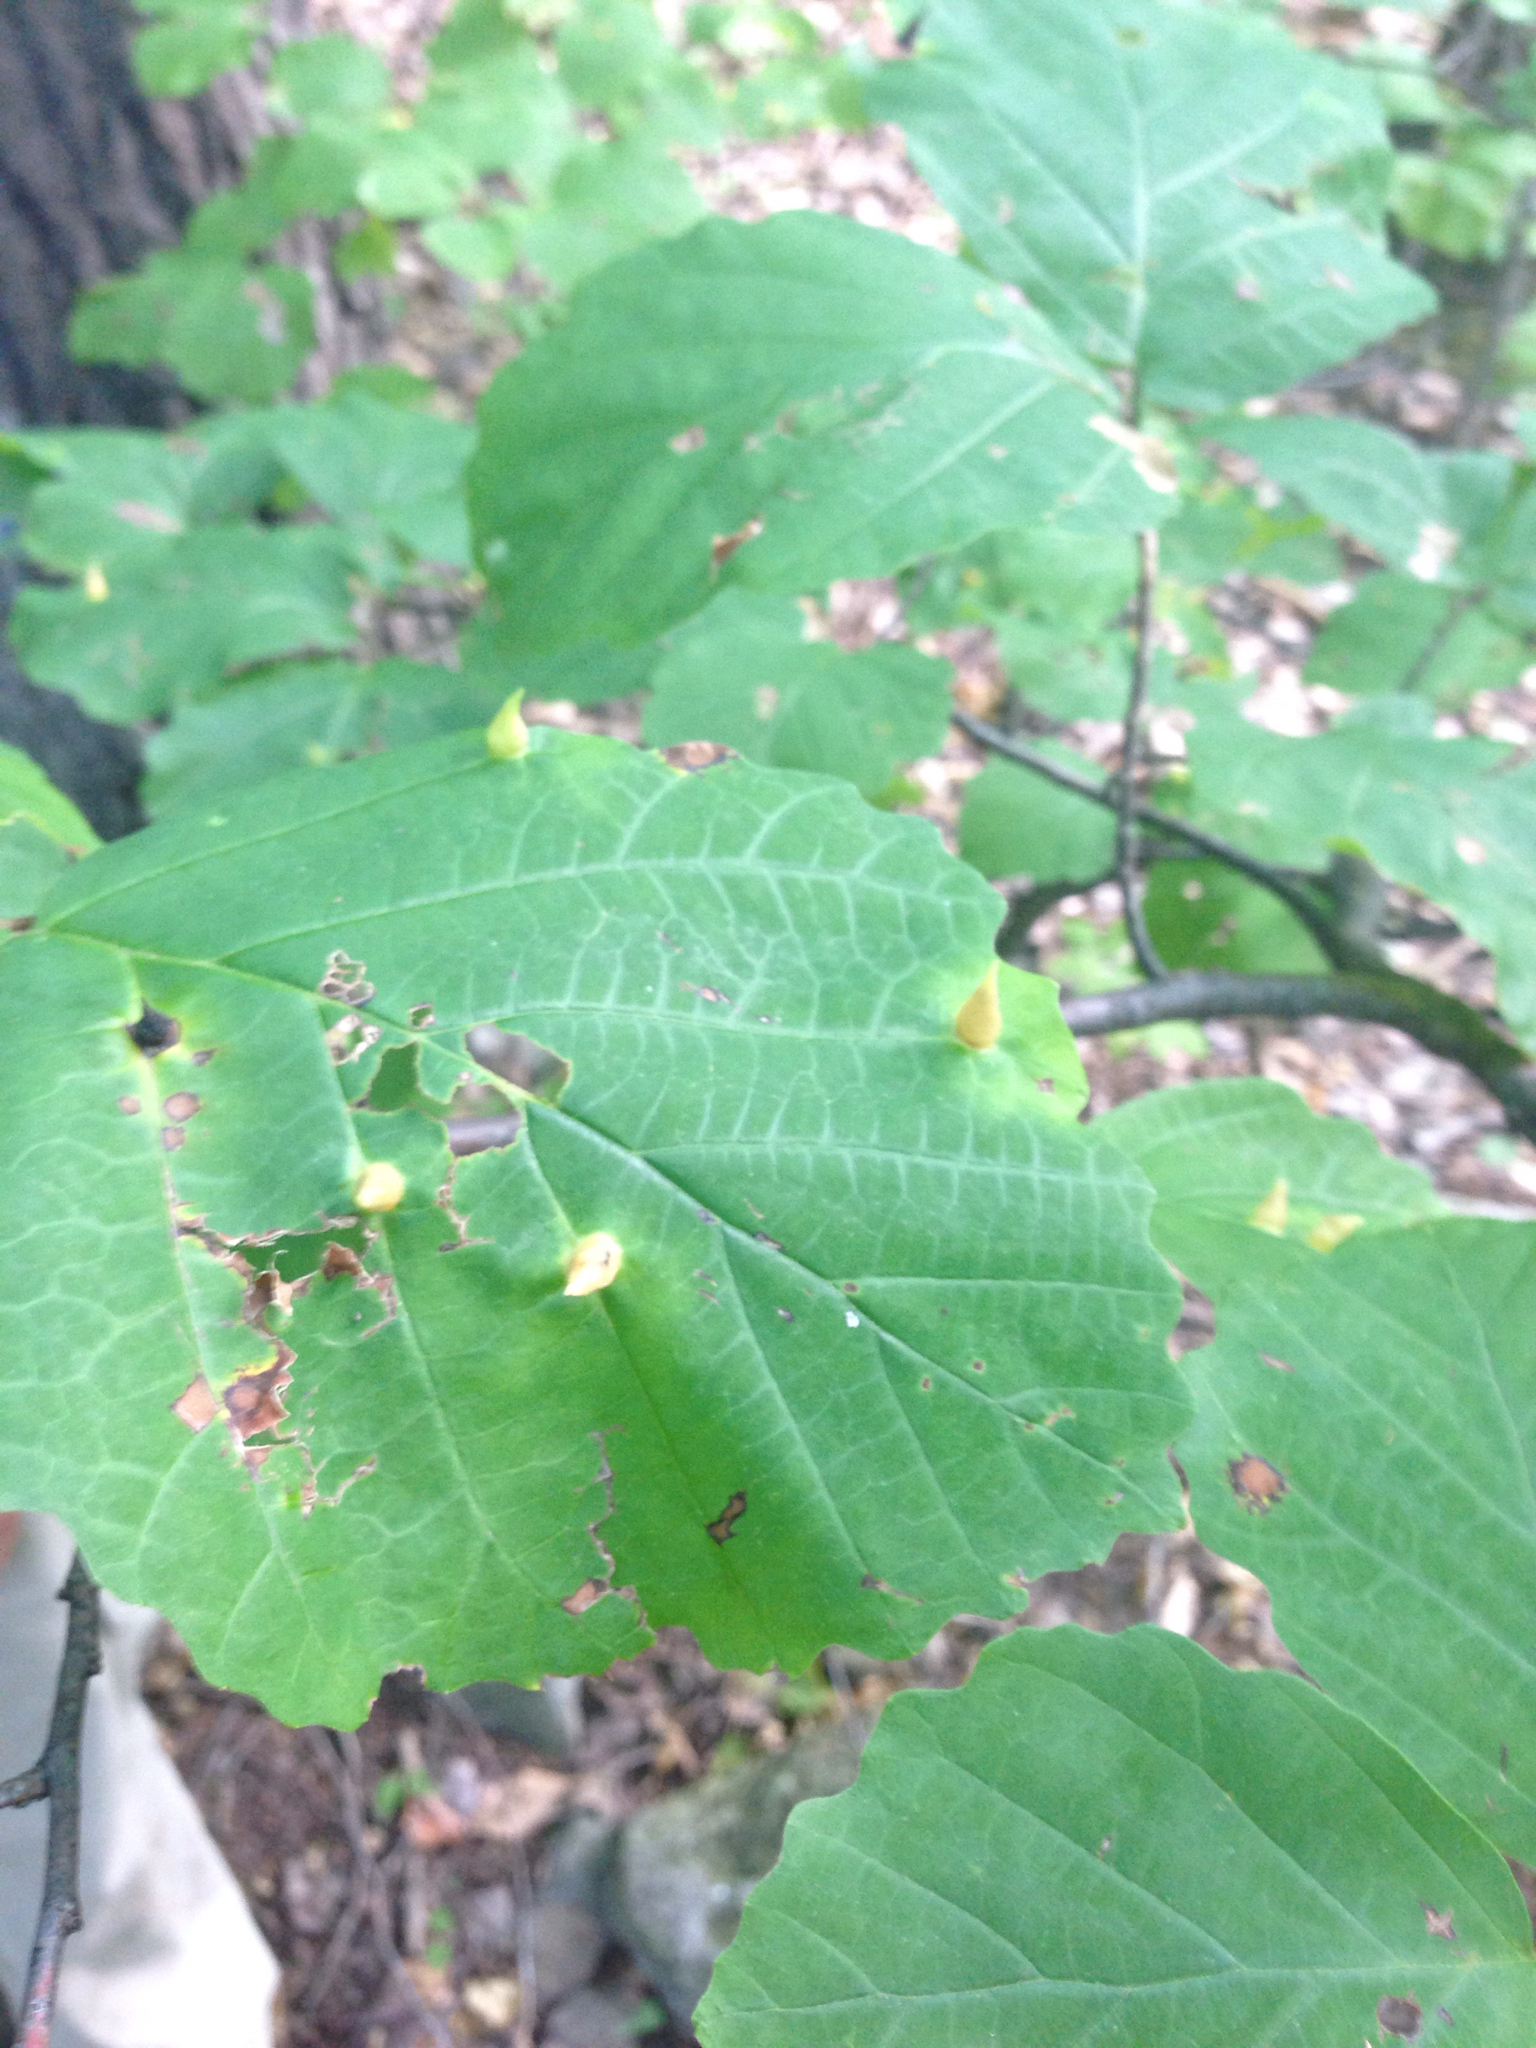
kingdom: Animalia
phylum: Arthropoda
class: Insecta
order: Hemiptera
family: Aphididae
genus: Hormaphis
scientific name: Hormaphis hamamelidis
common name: Witch-hazel cone gall aphid
